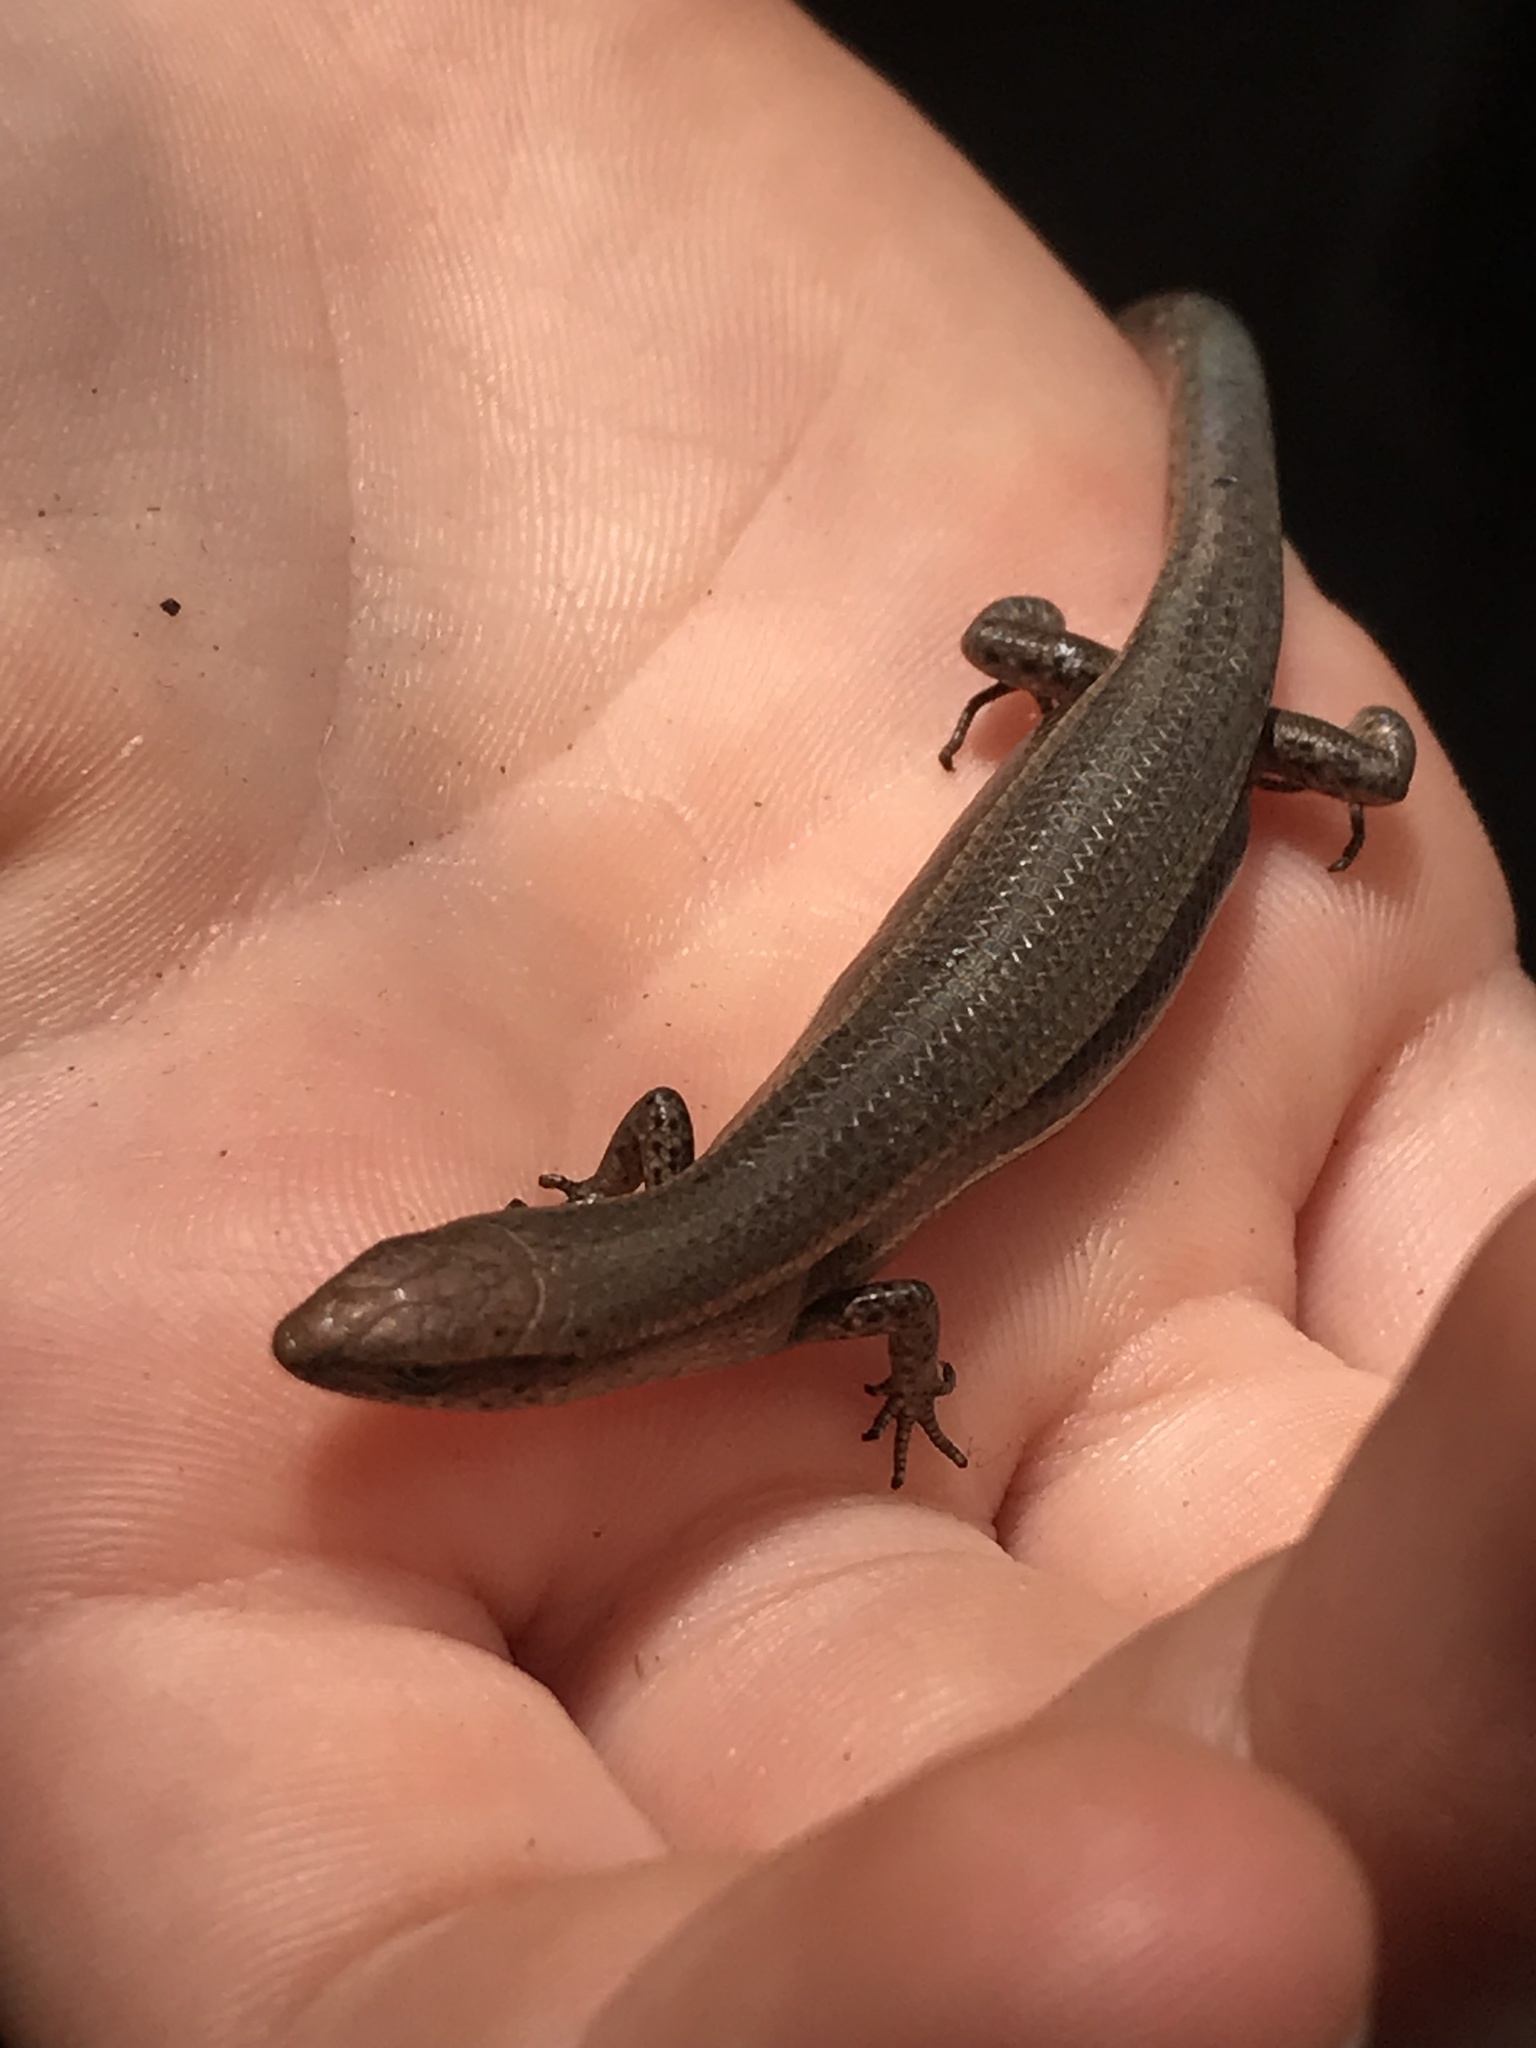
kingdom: Animalia
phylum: Chordata
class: Squamata
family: Scincidae
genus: Lampropholis
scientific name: Lampropholis delicata
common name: Plague skink
